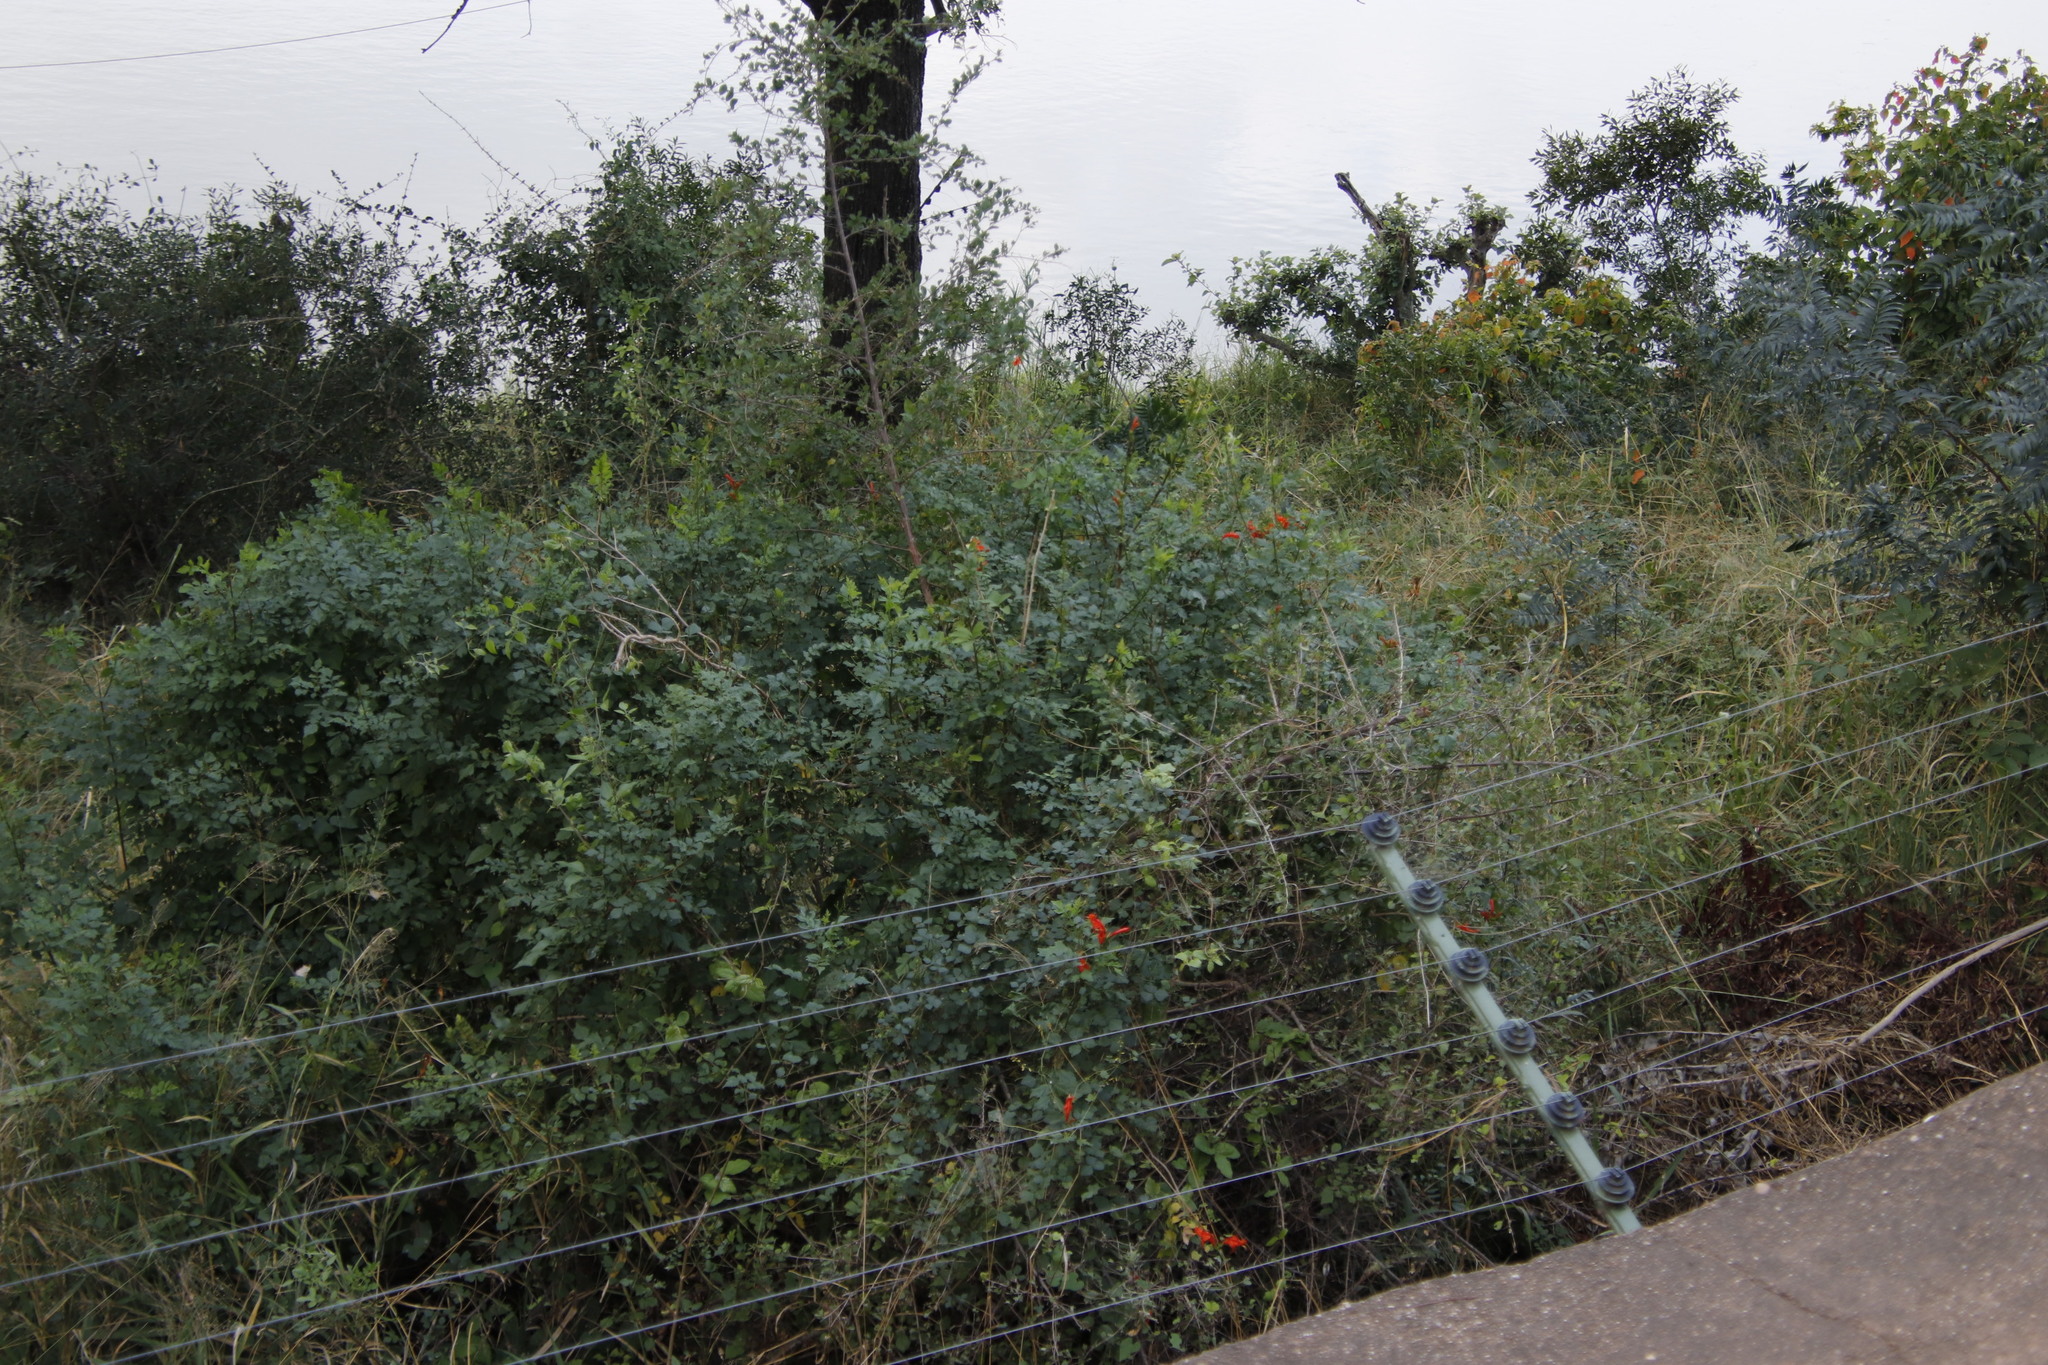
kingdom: Plantae
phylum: Tracheophyta
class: Magnoliopsida
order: Lamiales
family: Bignoniaceae
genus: Tecomaria
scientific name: Tecomaria capensis
